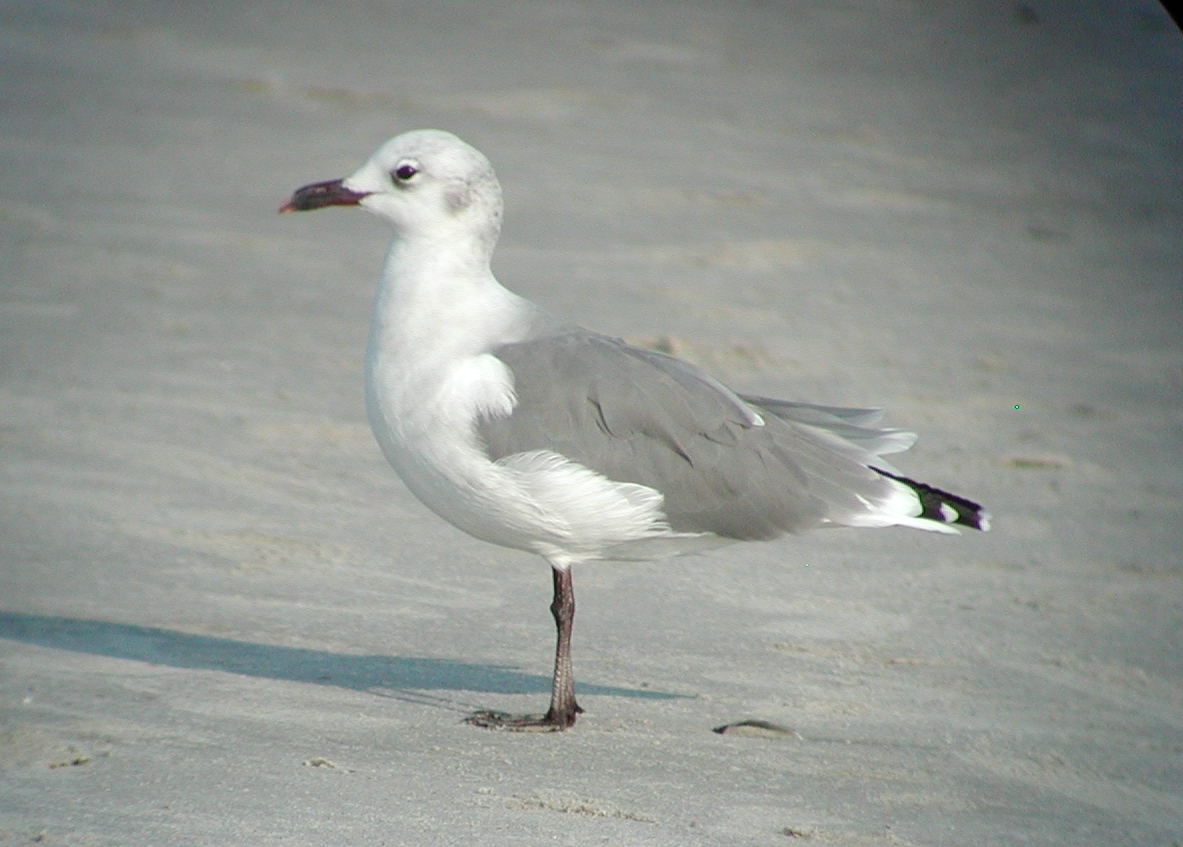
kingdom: Animalia
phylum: Chordata
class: Aves
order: Charadriiformes
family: Laridae
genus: Leucophaeus
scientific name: Leucophaeus atricilla
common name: Laughing gull
